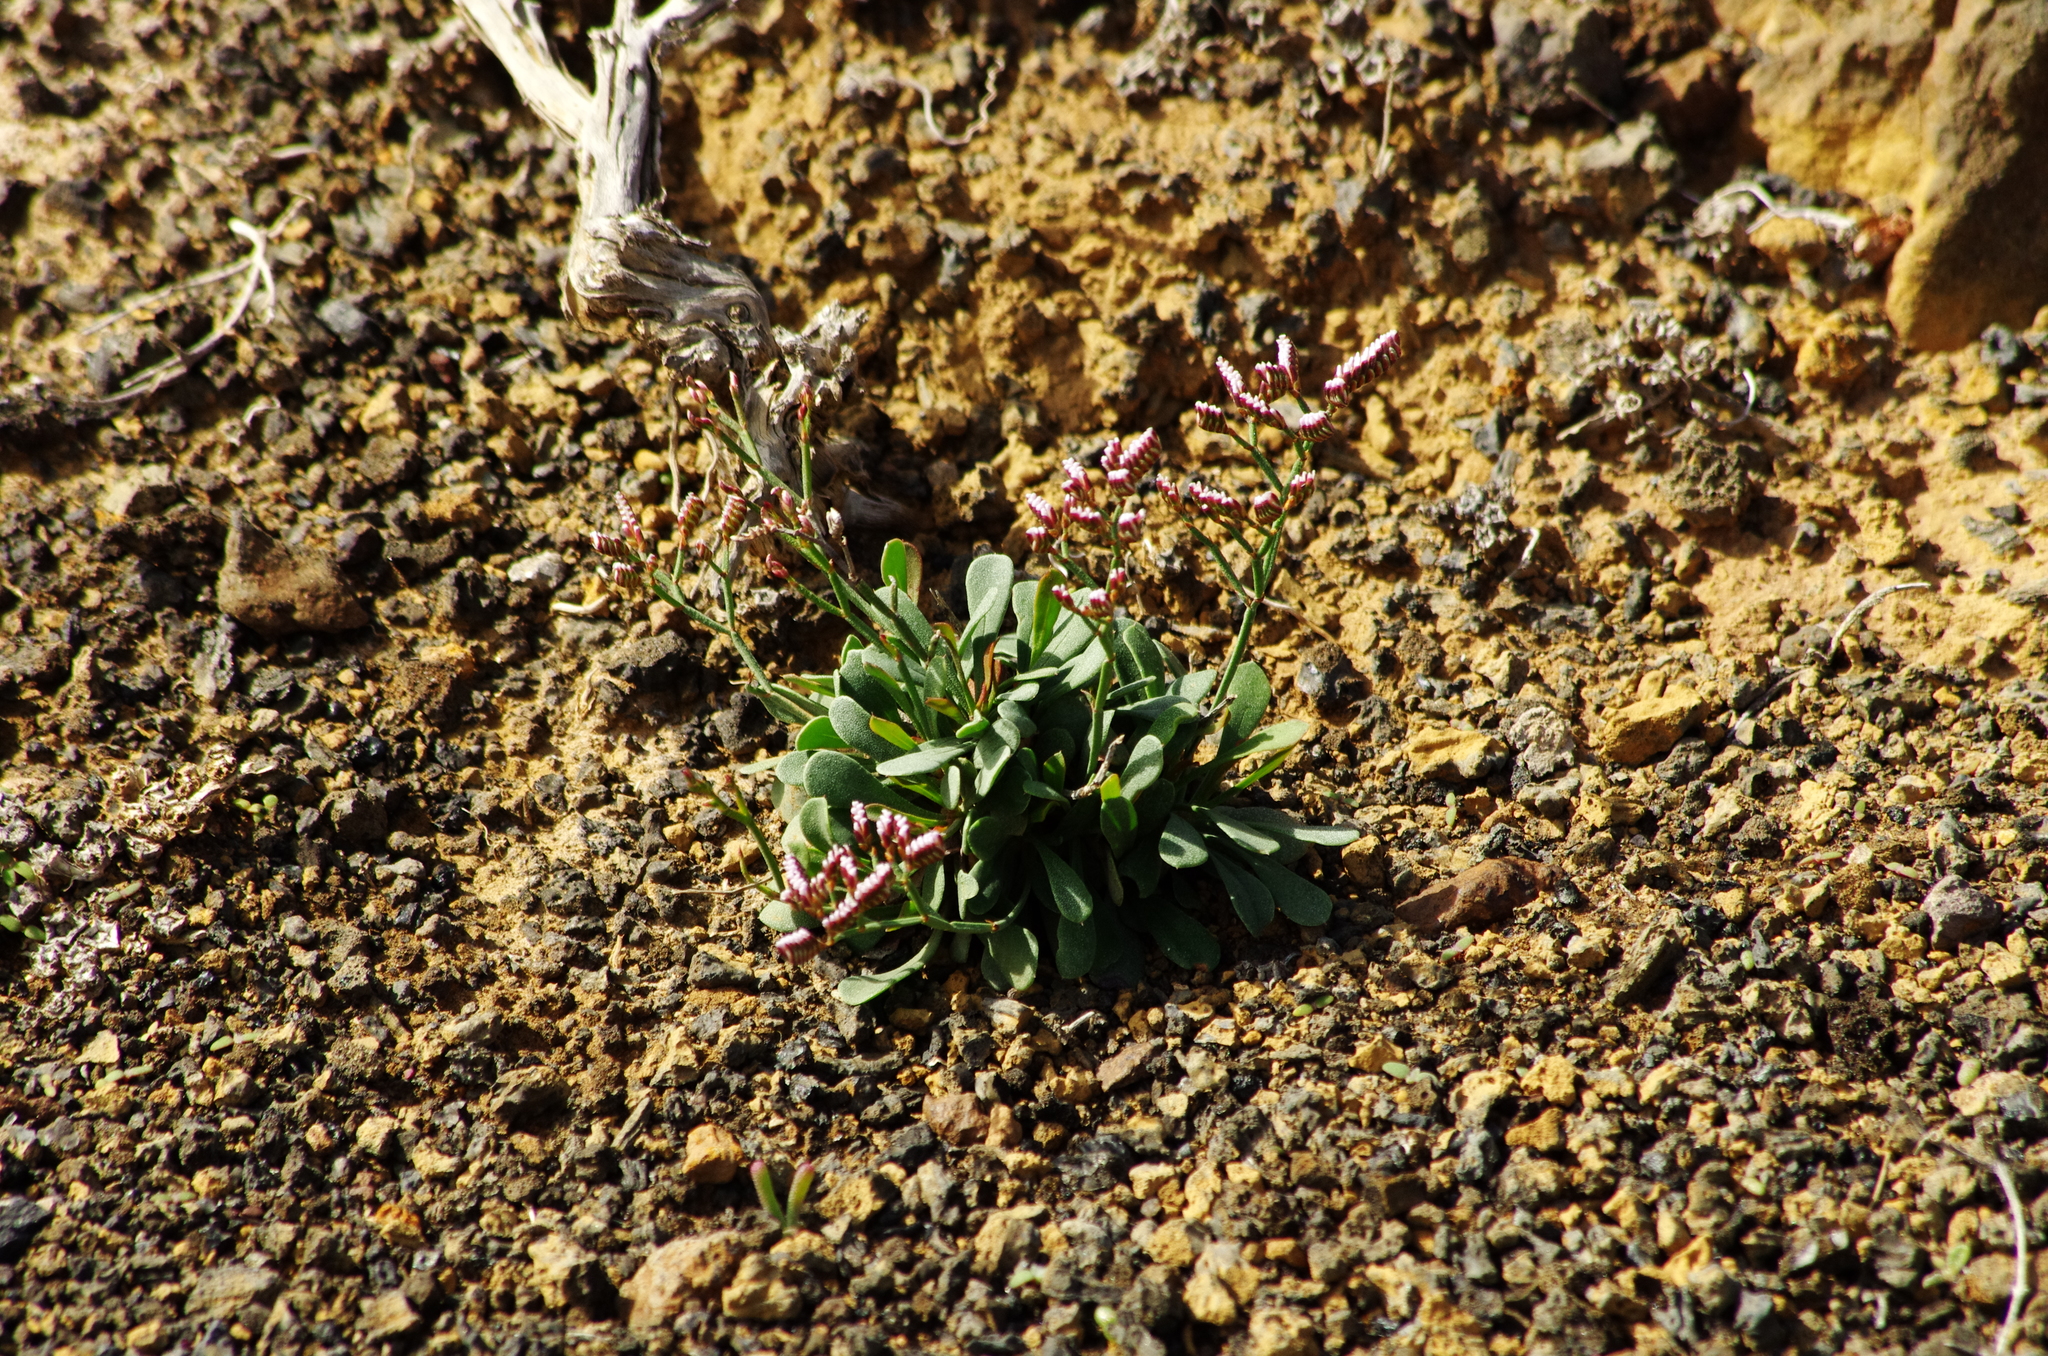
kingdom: Plantae
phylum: Tracheophyta
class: Magnoliopsida
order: Caryophyllales
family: Plumbaginaceae
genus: Limonium
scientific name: Limonium pectinatum
